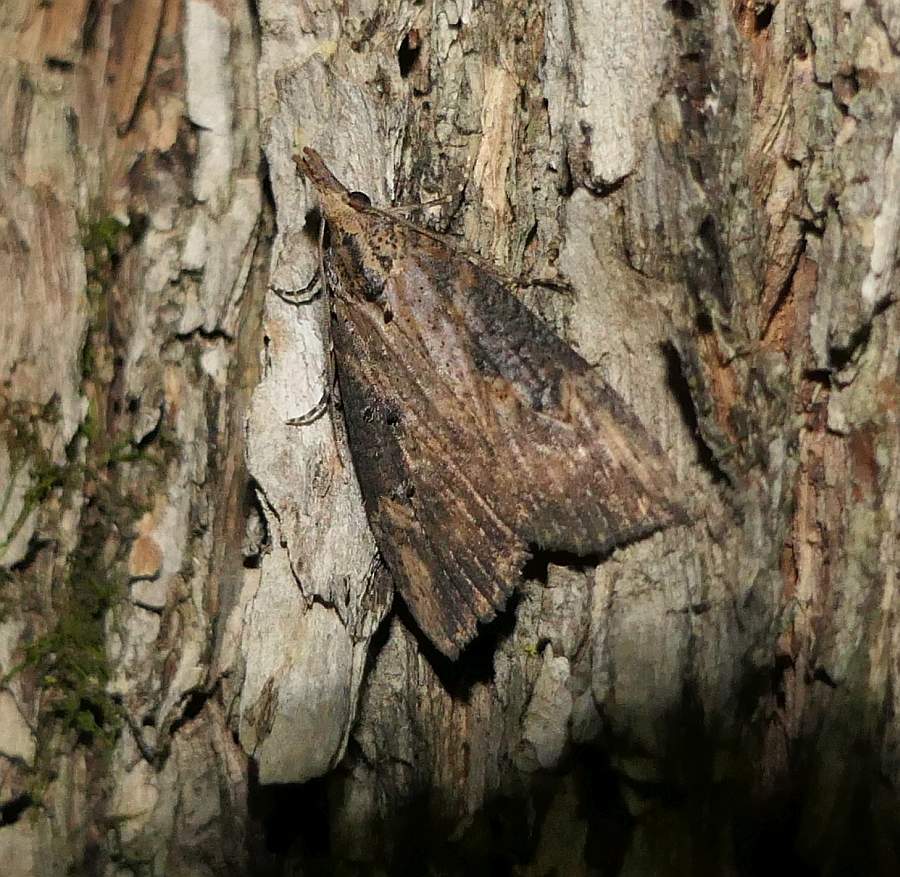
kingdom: Animalia
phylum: Arthropoda
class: Insecta
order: Lepidoptera
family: Erebidae
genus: Hypena
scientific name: Hypena scabra
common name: Green cloverworm
